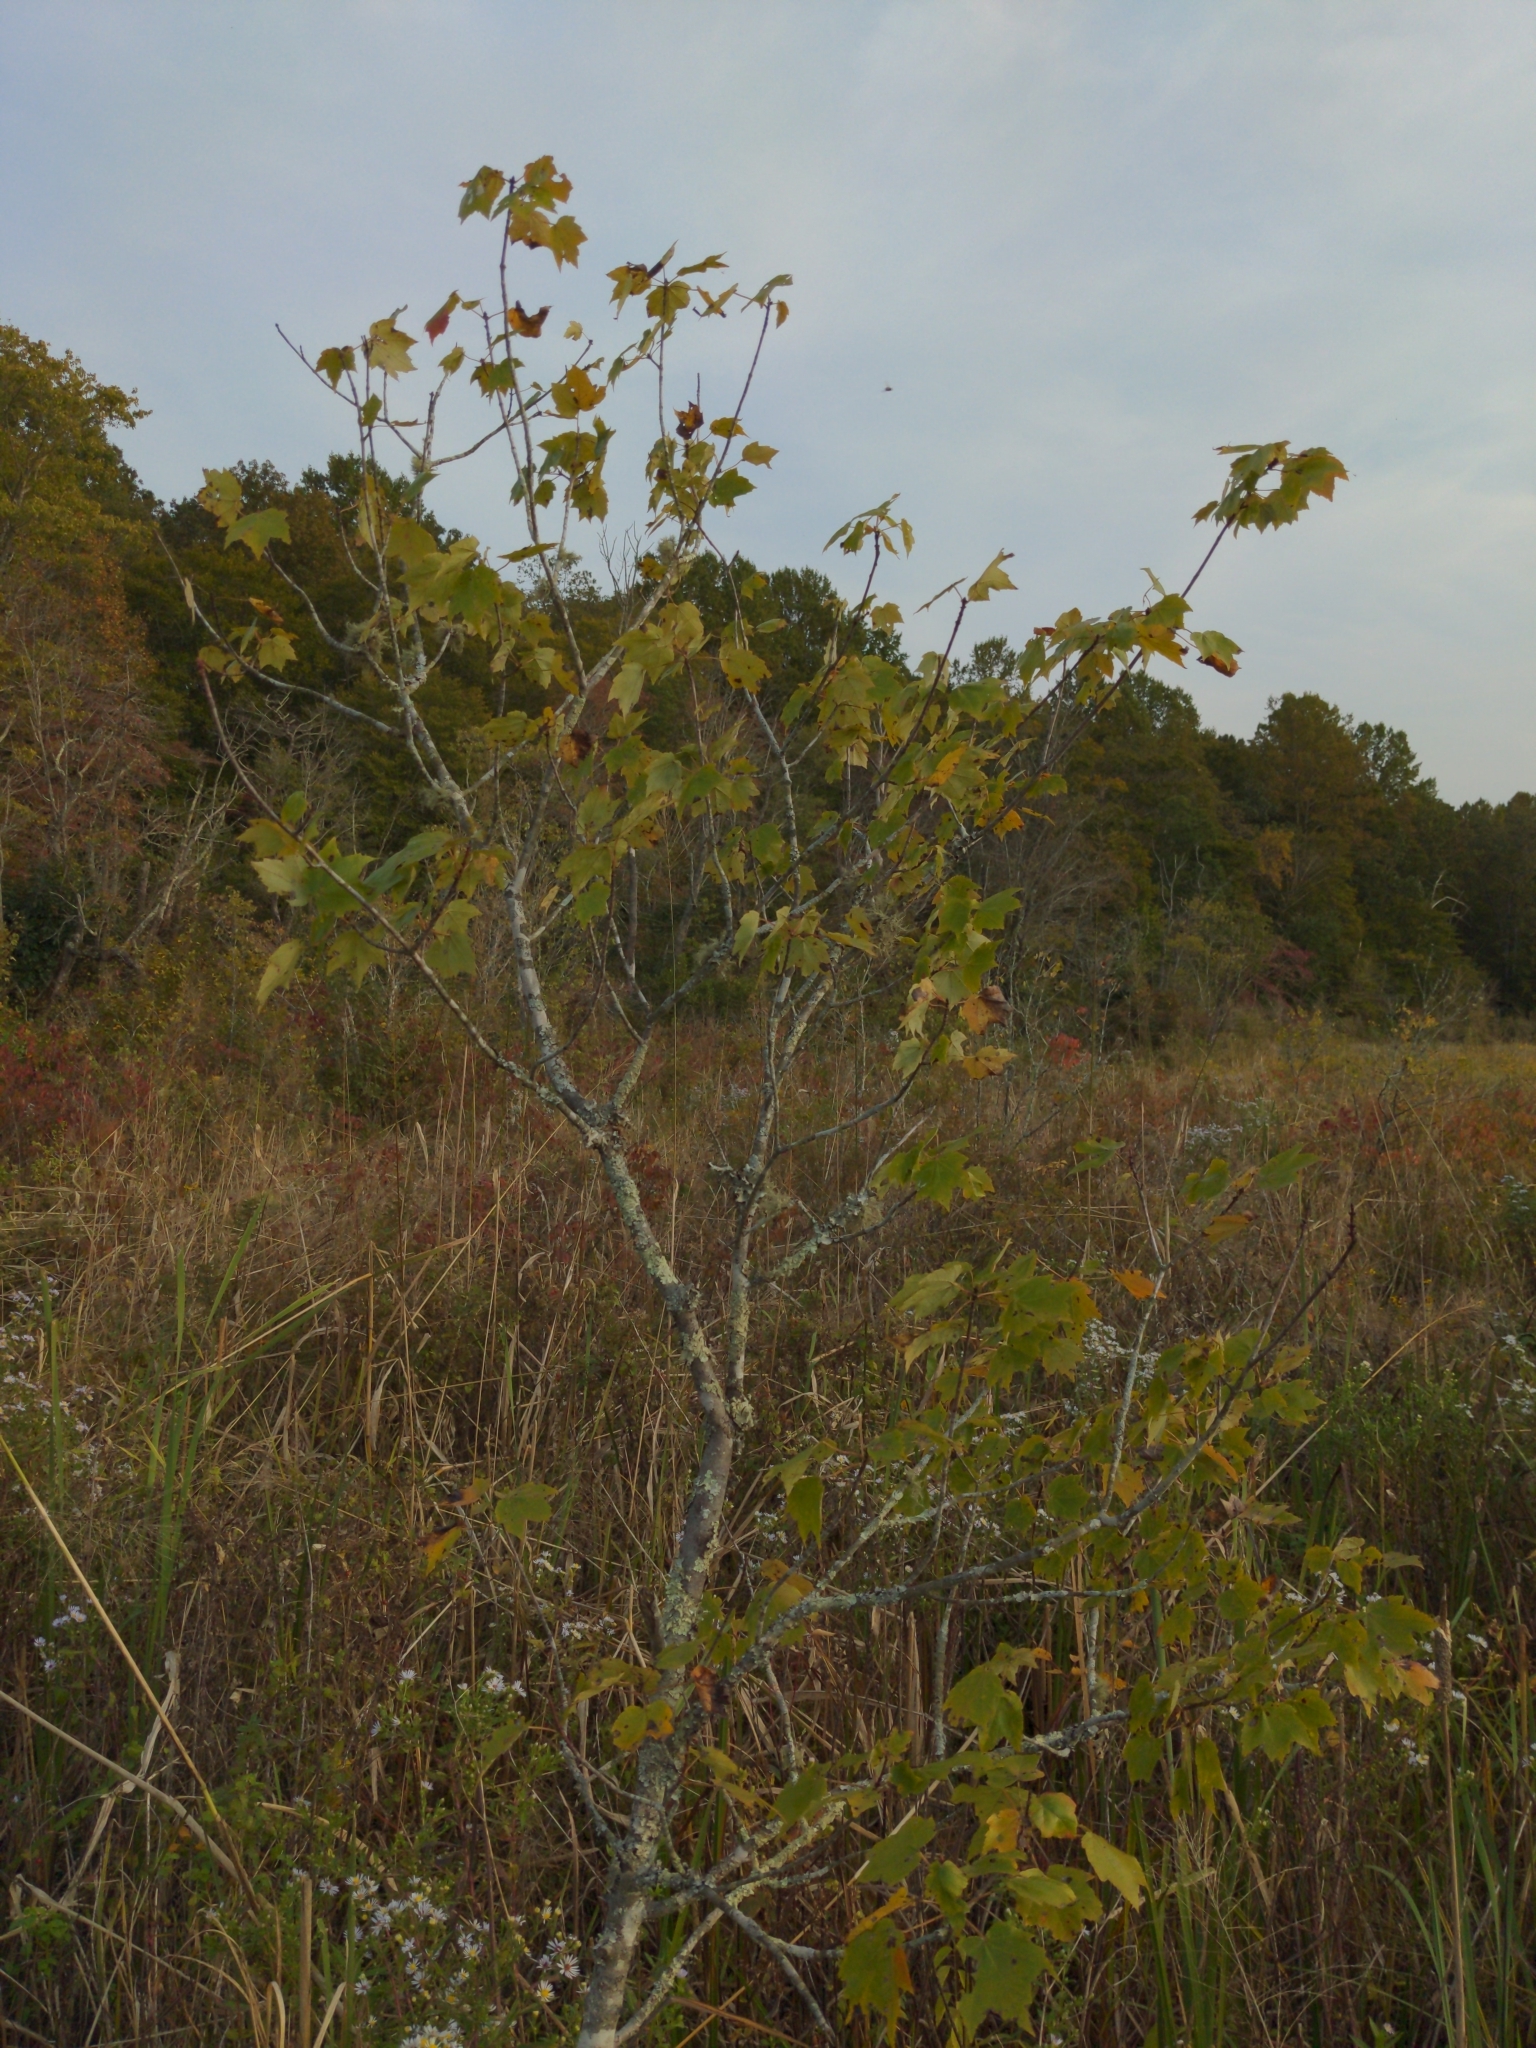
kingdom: Plantae
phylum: Tracheophyta
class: Magnoliopsida
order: Sapindales
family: Sapindaceae
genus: Acer
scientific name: Acer rubrum
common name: Red maple
